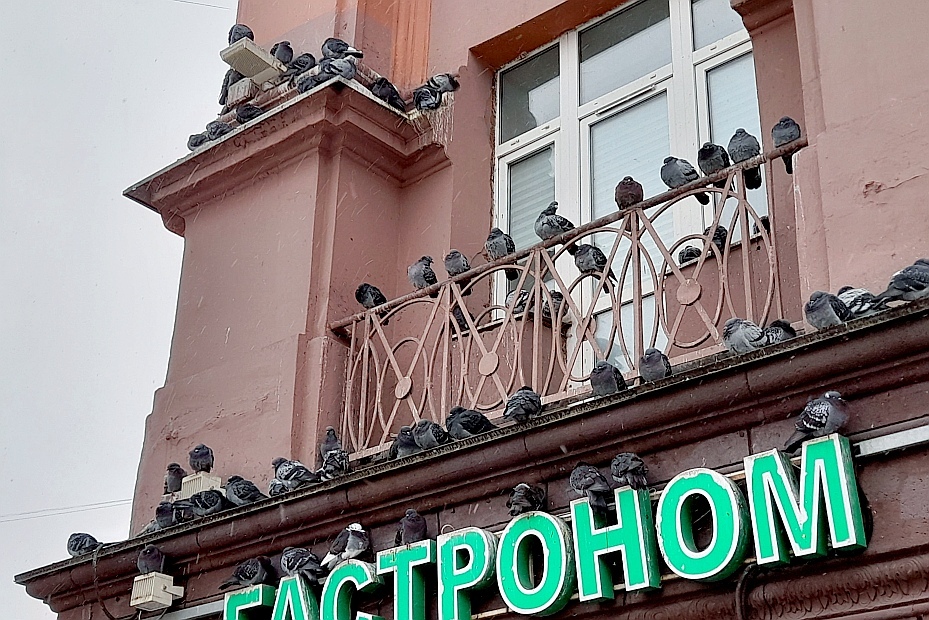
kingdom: Animalia
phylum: Chordata
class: Aves
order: Columbiformes
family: Columbidae
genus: Columba
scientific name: Columba livia
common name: Rock pigeon
